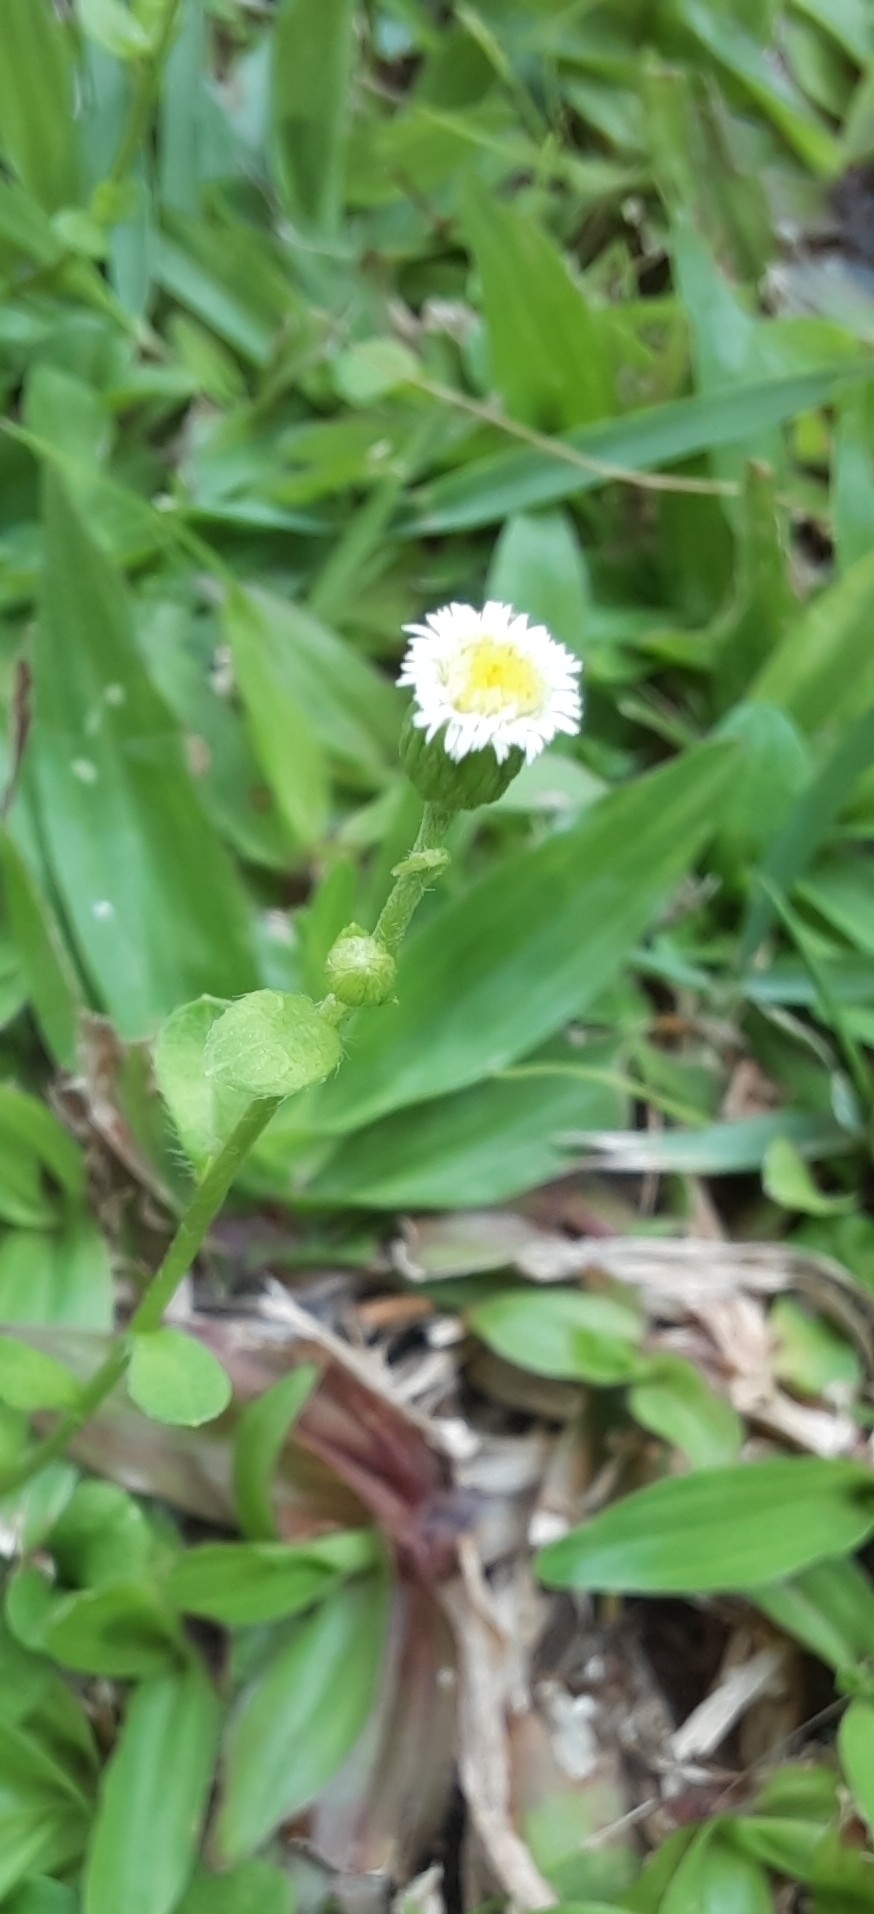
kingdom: Plantae
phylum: Tracheophyta
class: Magnoliopsida
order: Asterales
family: Asteraceae
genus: Eclipta
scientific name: Eclipta prostrata
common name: False daisy
